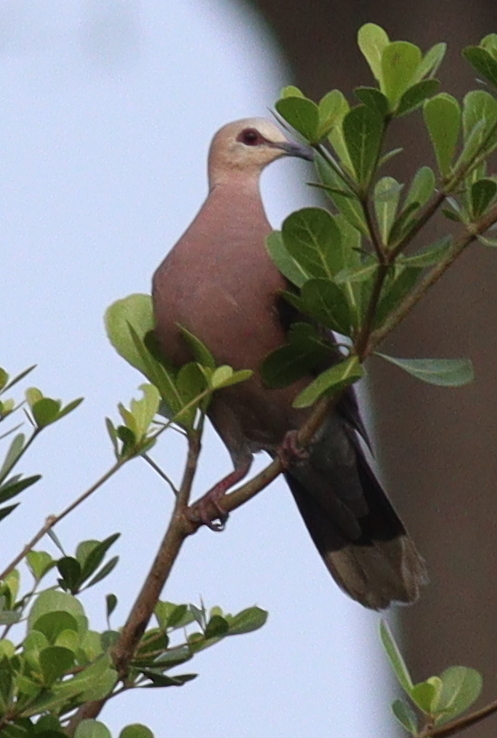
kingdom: Animalia
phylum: Chordata
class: Aves
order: Columbiformes
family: Columbidae
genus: Streptopelia
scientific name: Streptopelia semitorquata
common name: Red-eyed dove
